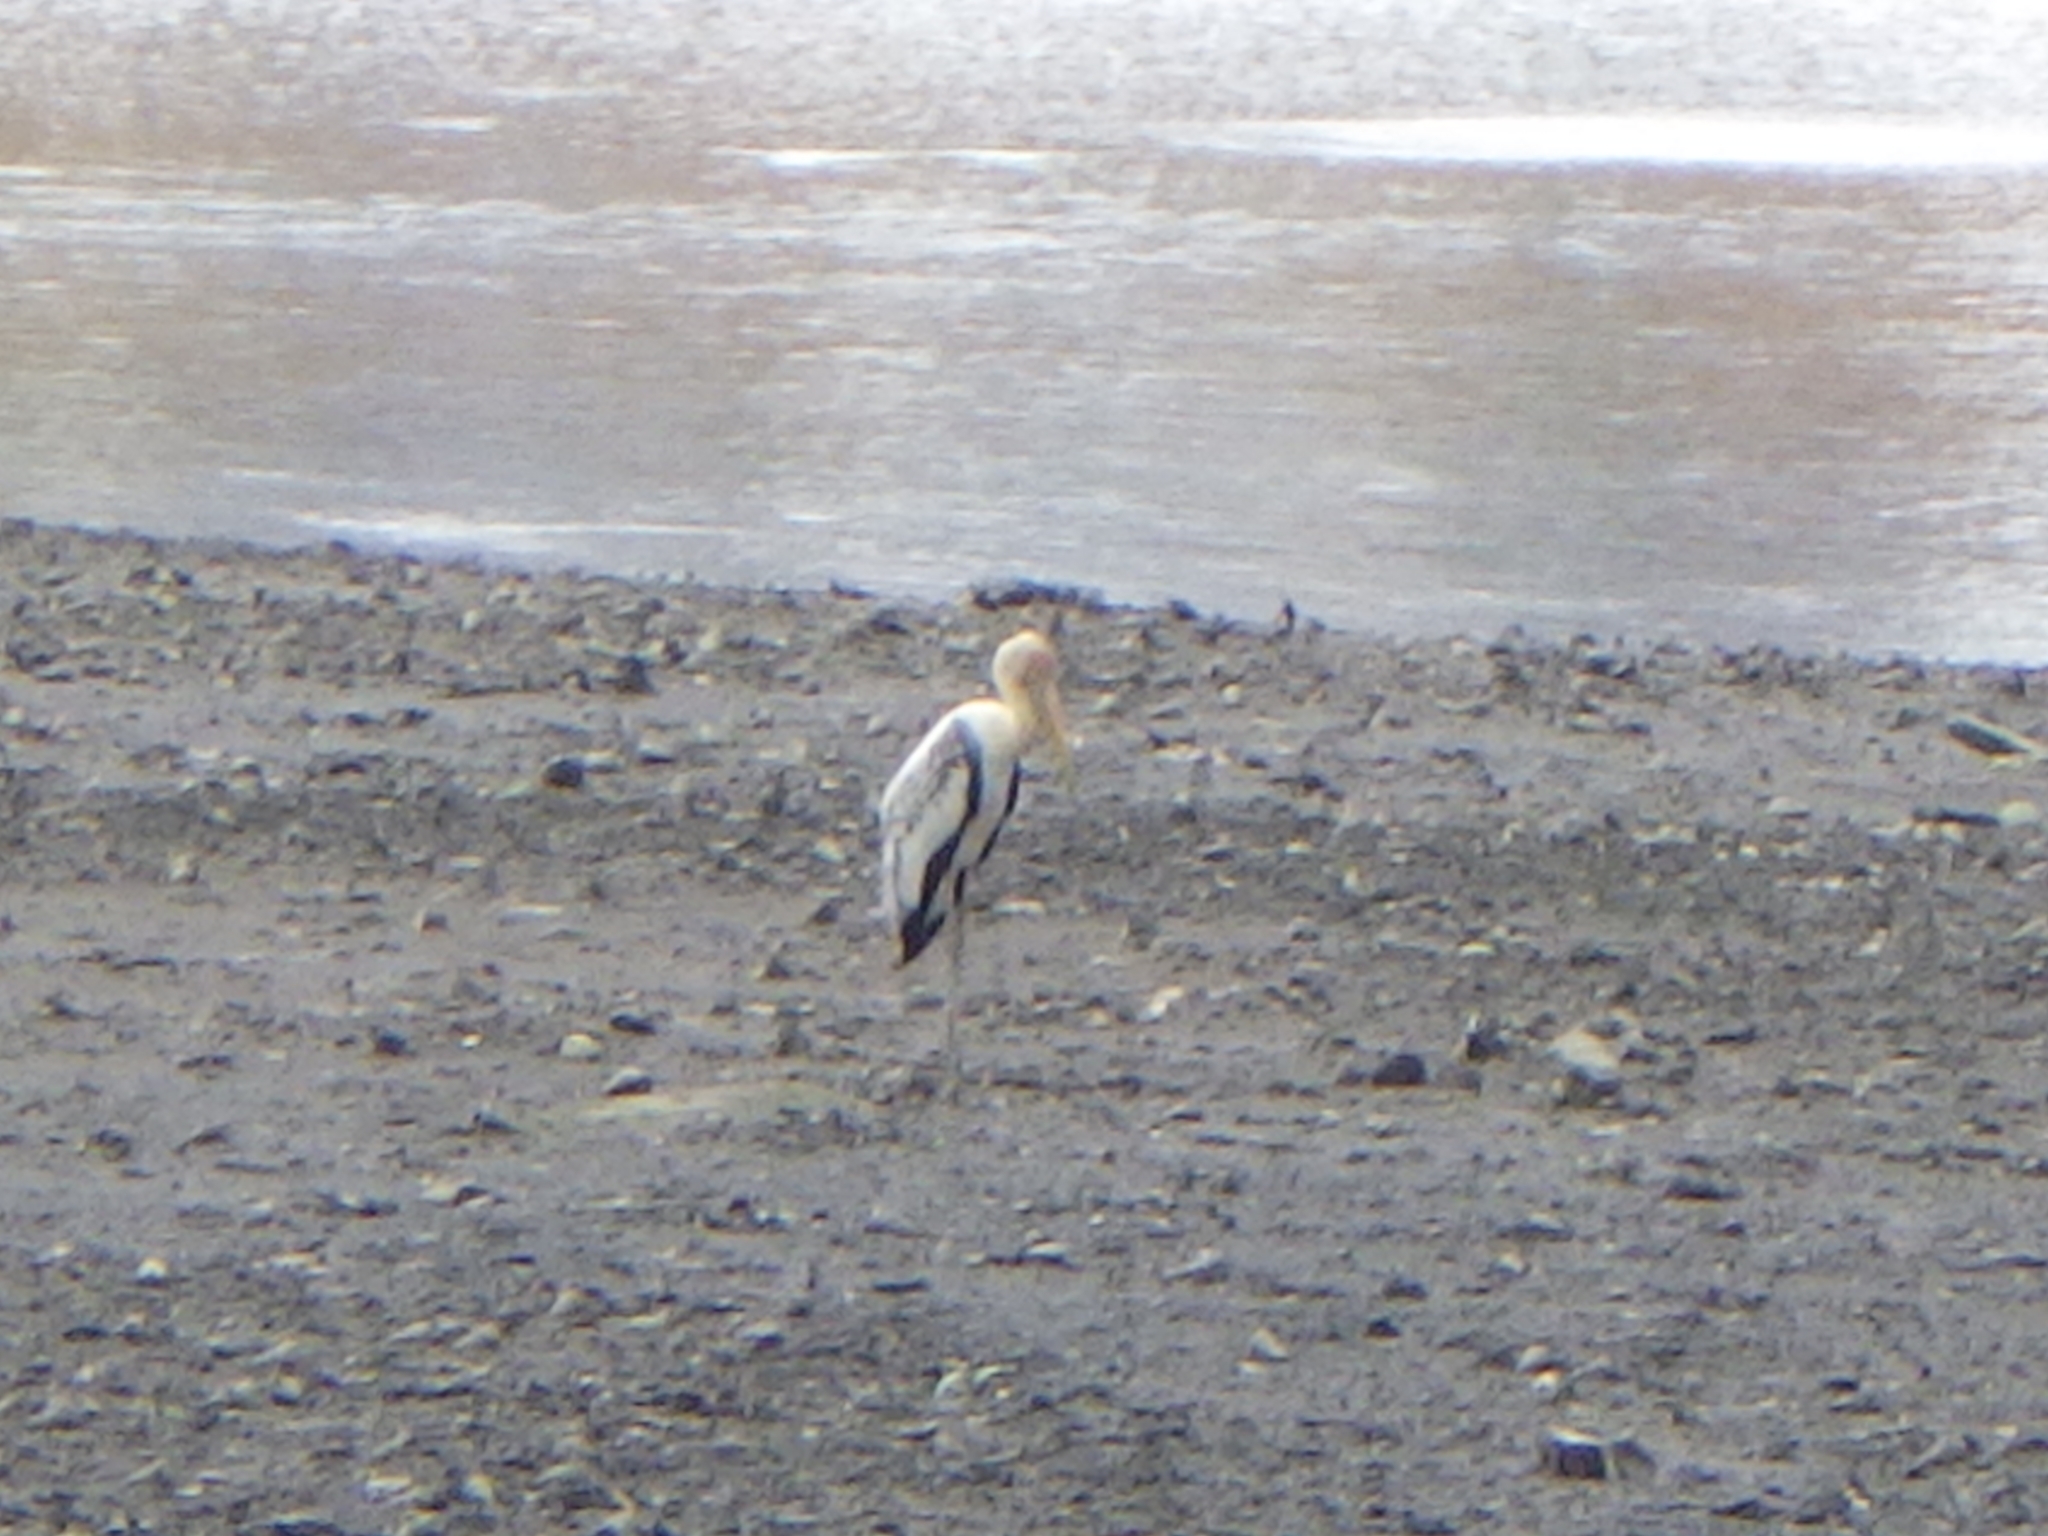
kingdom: Animalia
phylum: Chordata
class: Aves
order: Ciconiiformes
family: Ciconiidae
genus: Mycteria
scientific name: Mycteria leucocephala
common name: Painted stork
